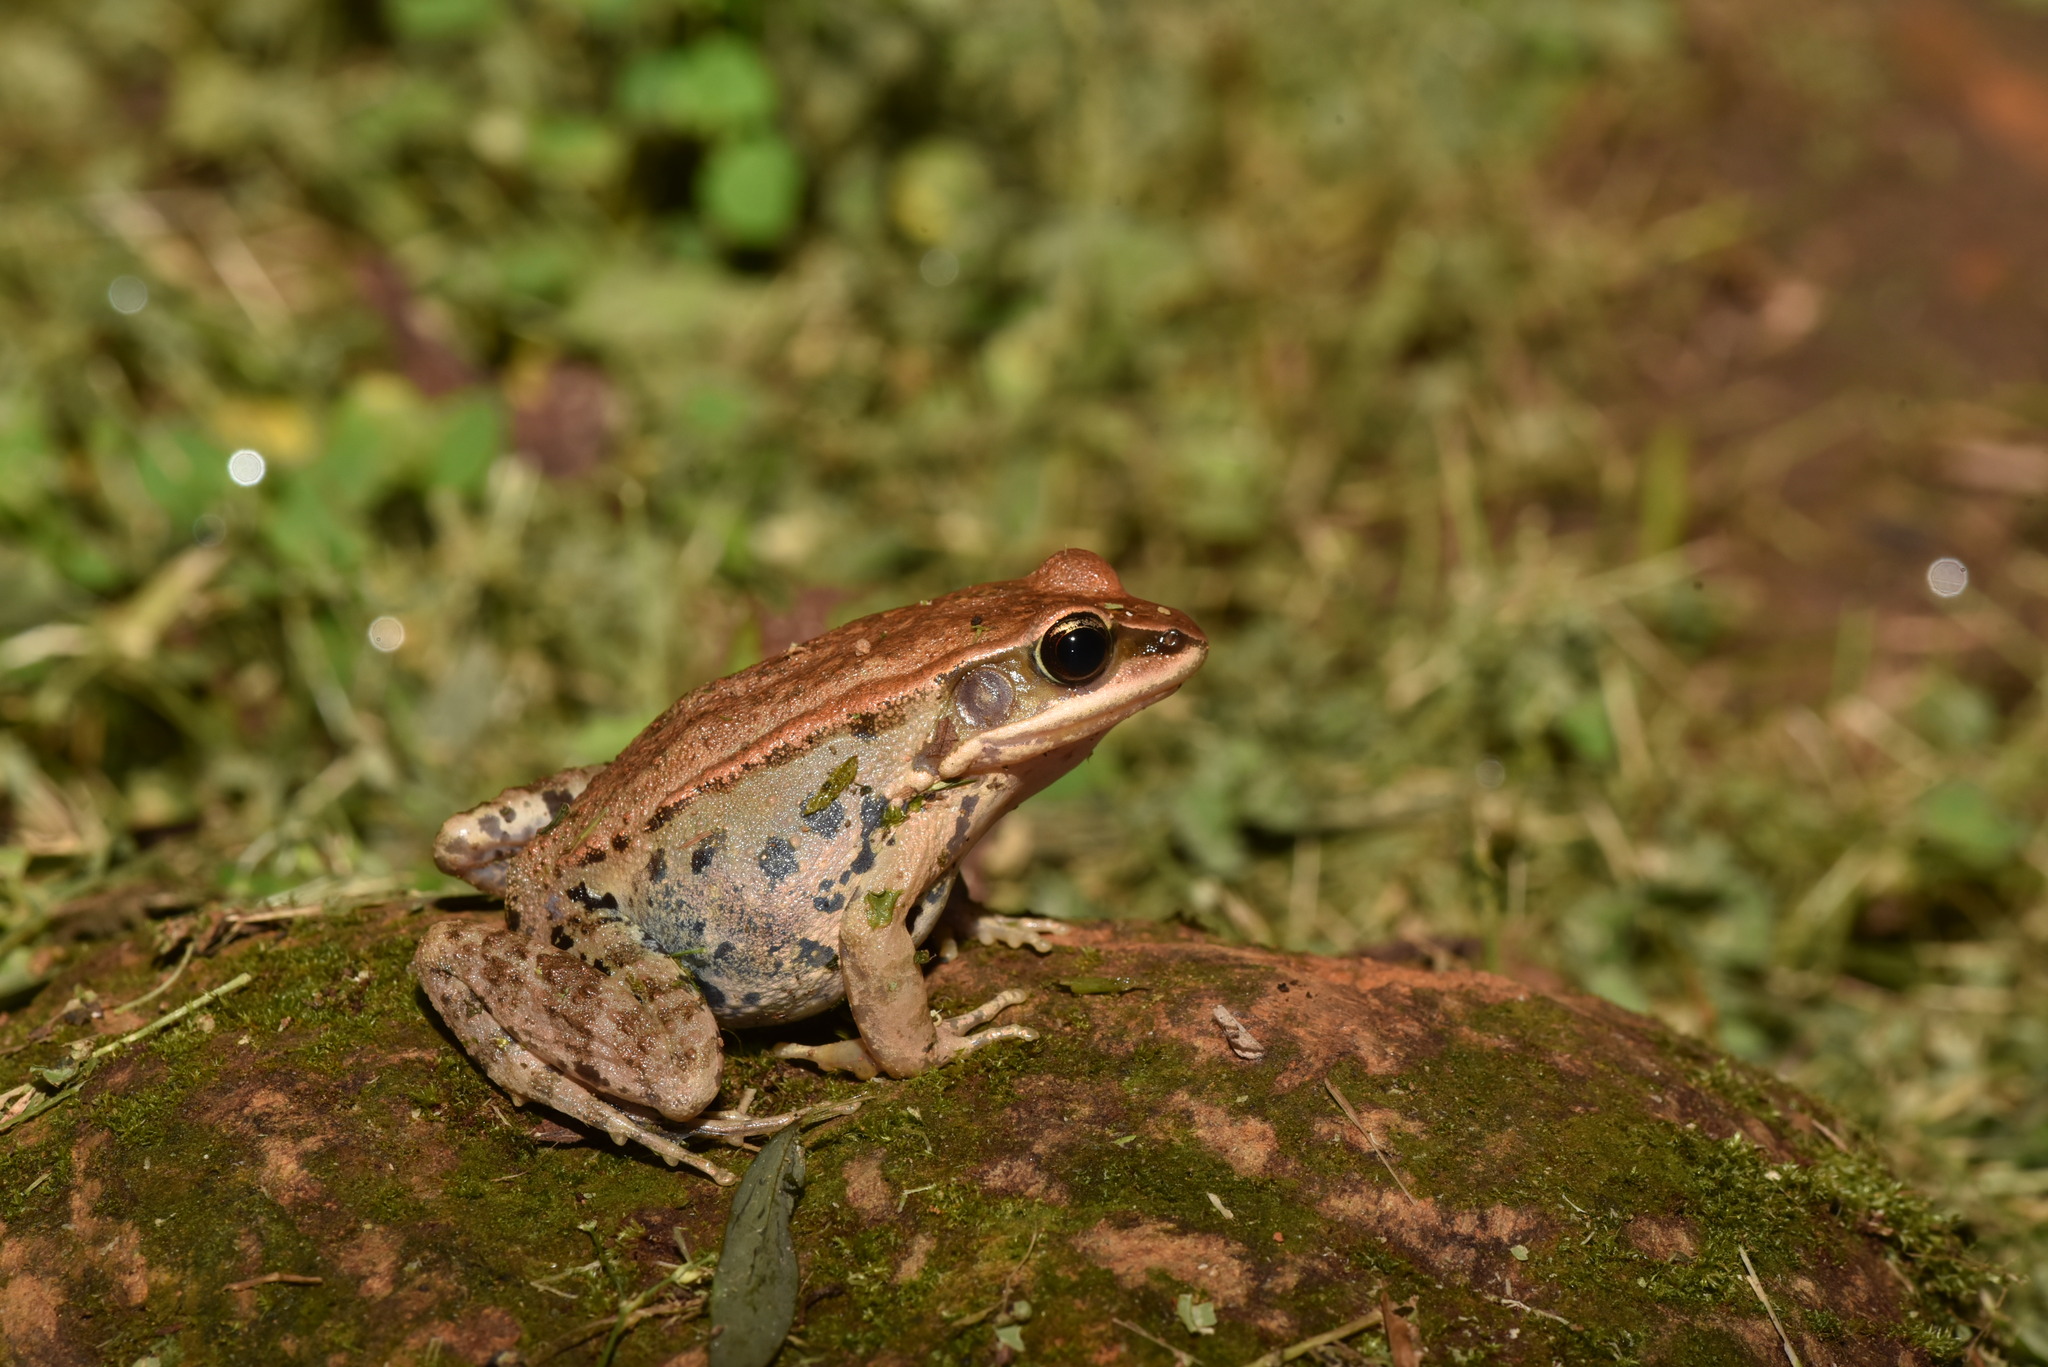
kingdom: Animalia
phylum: Chordata
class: Amphibia
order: Anura
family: Ranidae
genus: Hylarana
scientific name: Hylarana latouchii
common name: Broad-folded frog
